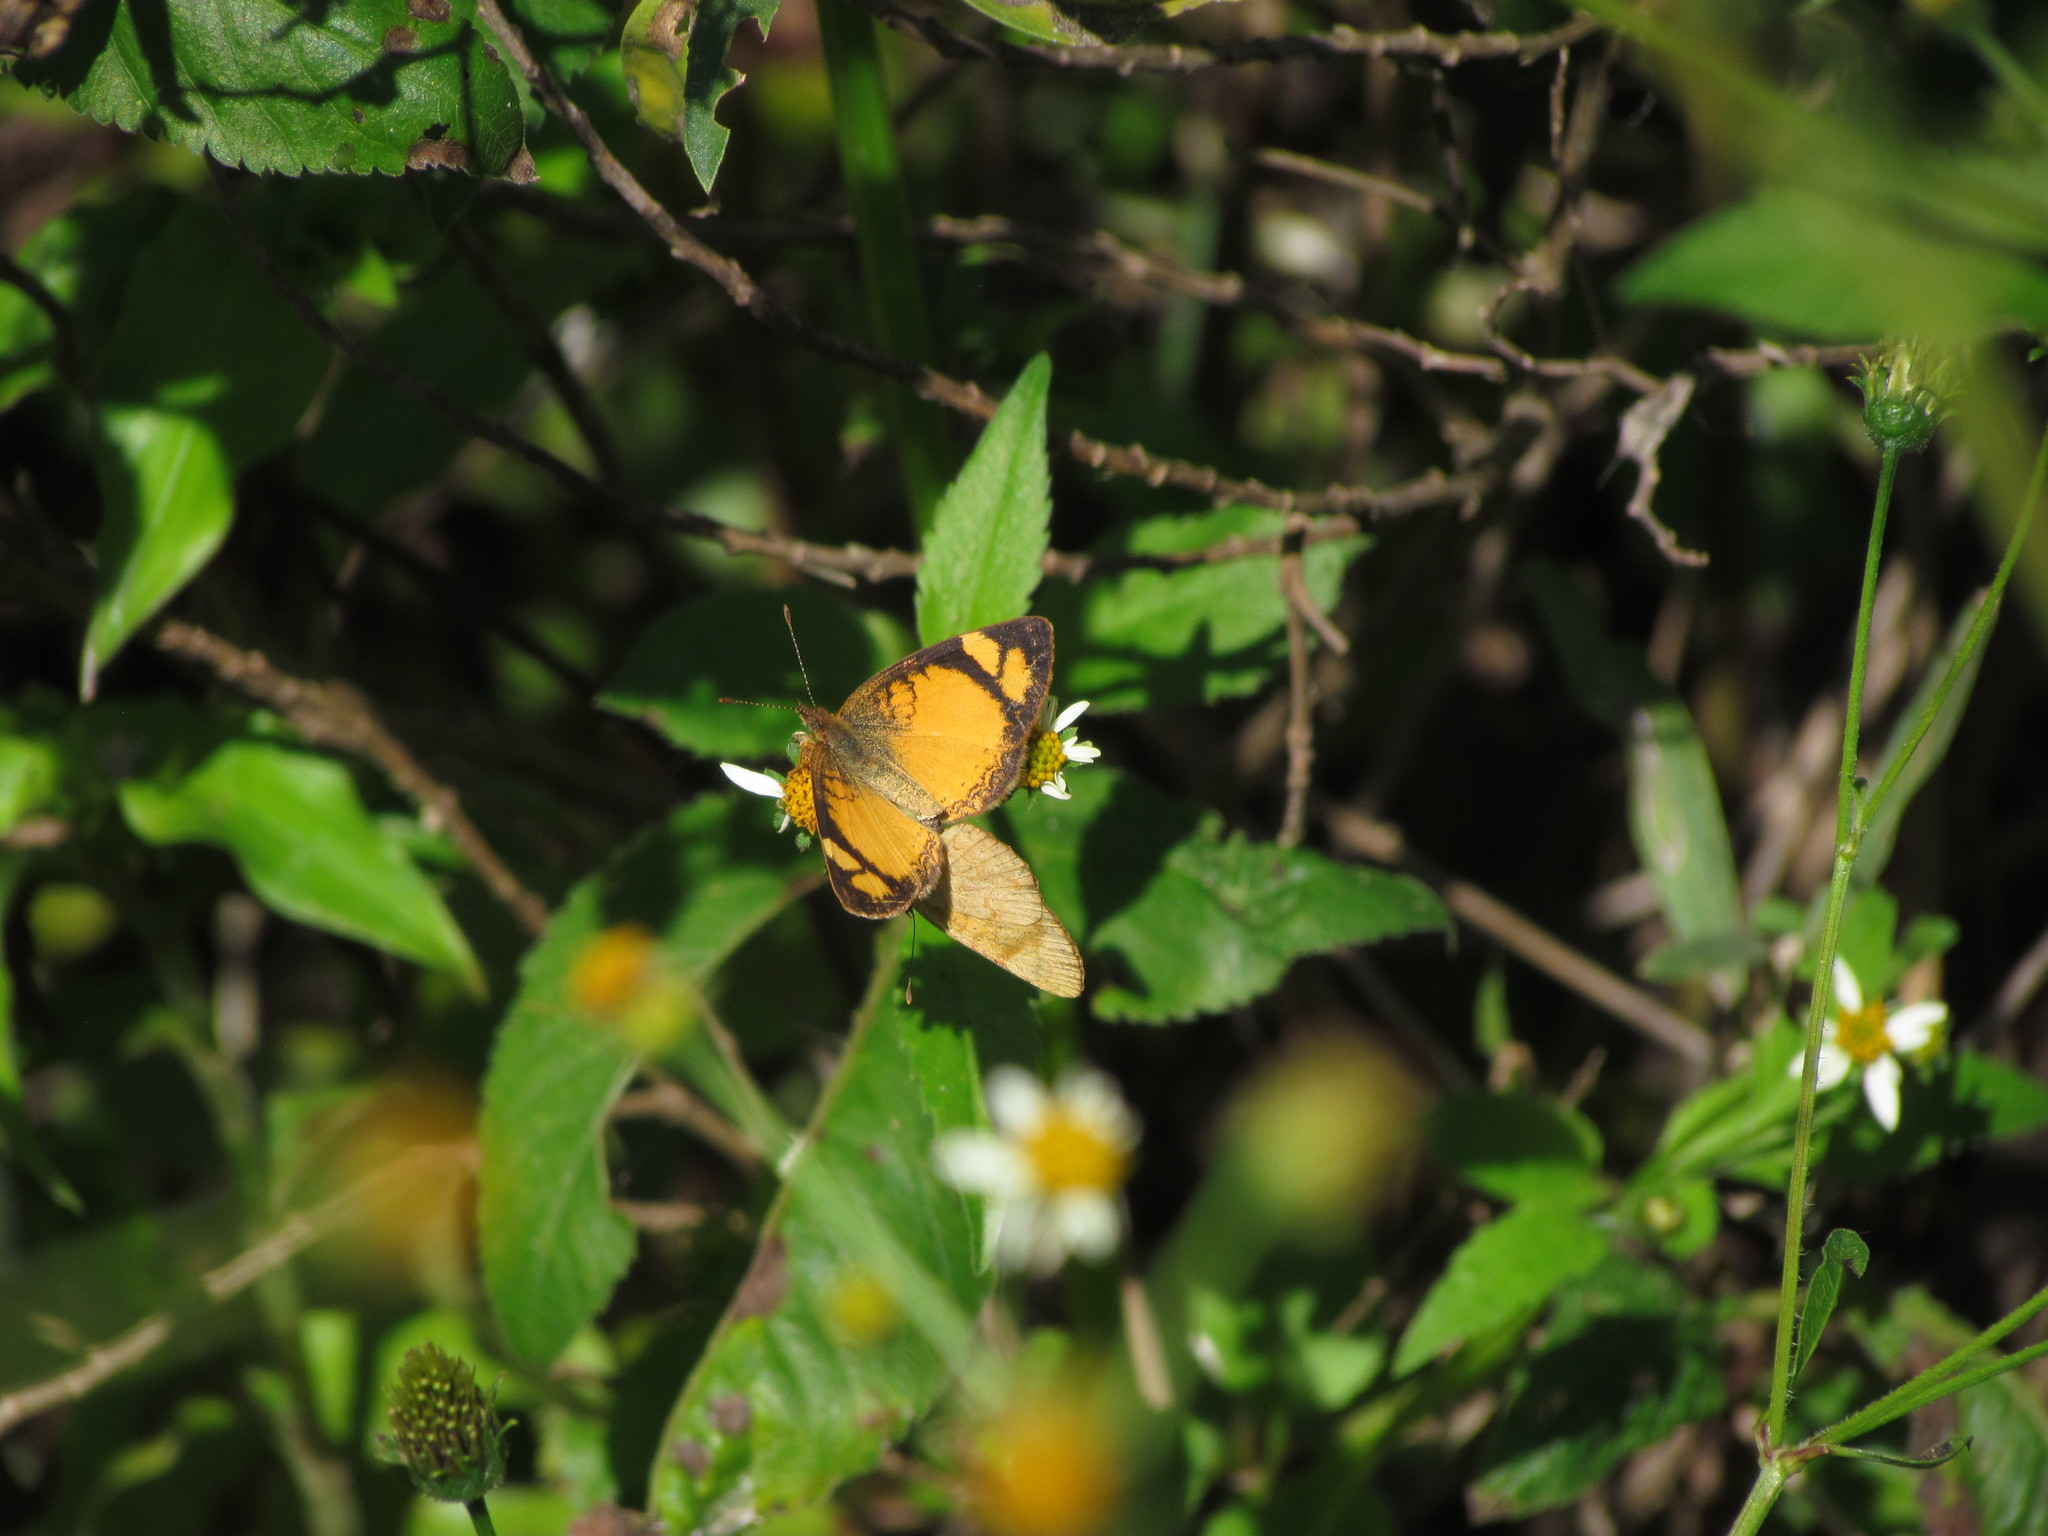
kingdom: Animalia
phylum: Arthropoda
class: Insecta
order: Lepidoptera
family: Nymphalidae
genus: Tegosa
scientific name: Tegosa claudina
